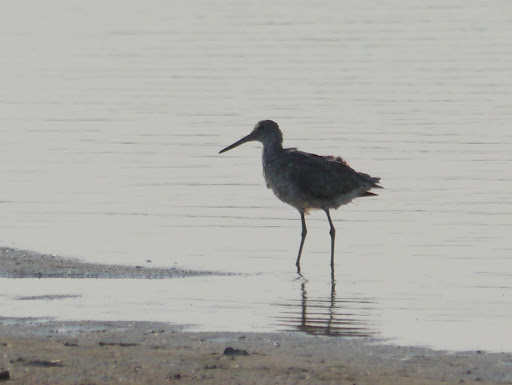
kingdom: Animalia
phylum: Chordata
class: Aves
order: Charadriiformes
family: Scolopacidae
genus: Tringa
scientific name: Tringa semipalmata
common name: Willet
